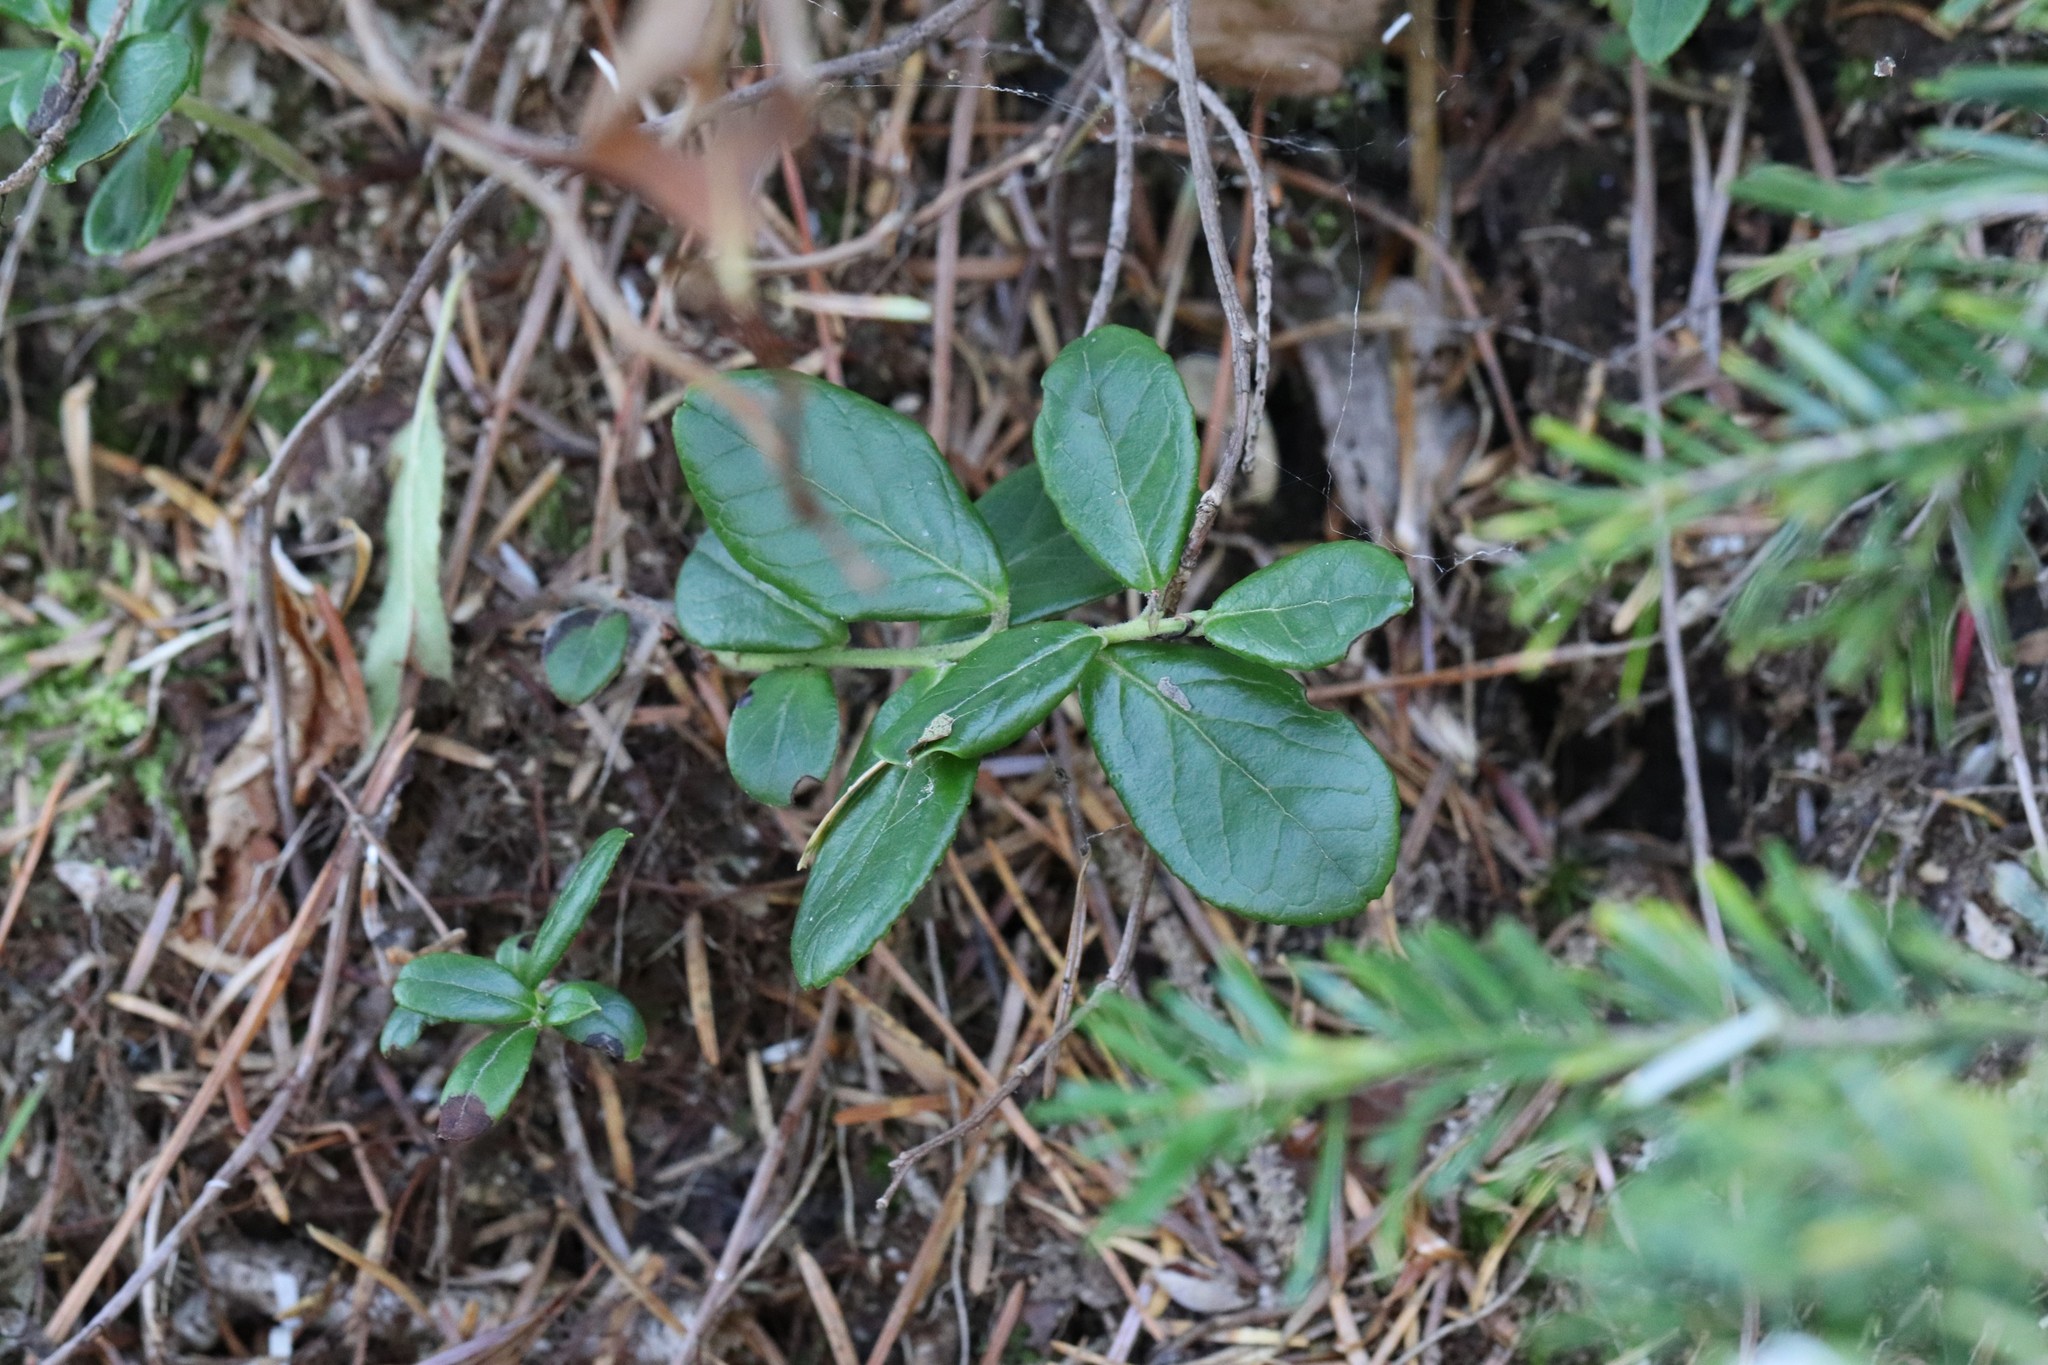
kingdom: Plantae
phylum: Tracheophyta
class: Magnoliopsida
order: Ericales
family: Ericaceae
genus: Vaccinium
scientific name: Vaccinium vitis-idaea
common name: Cowberry
